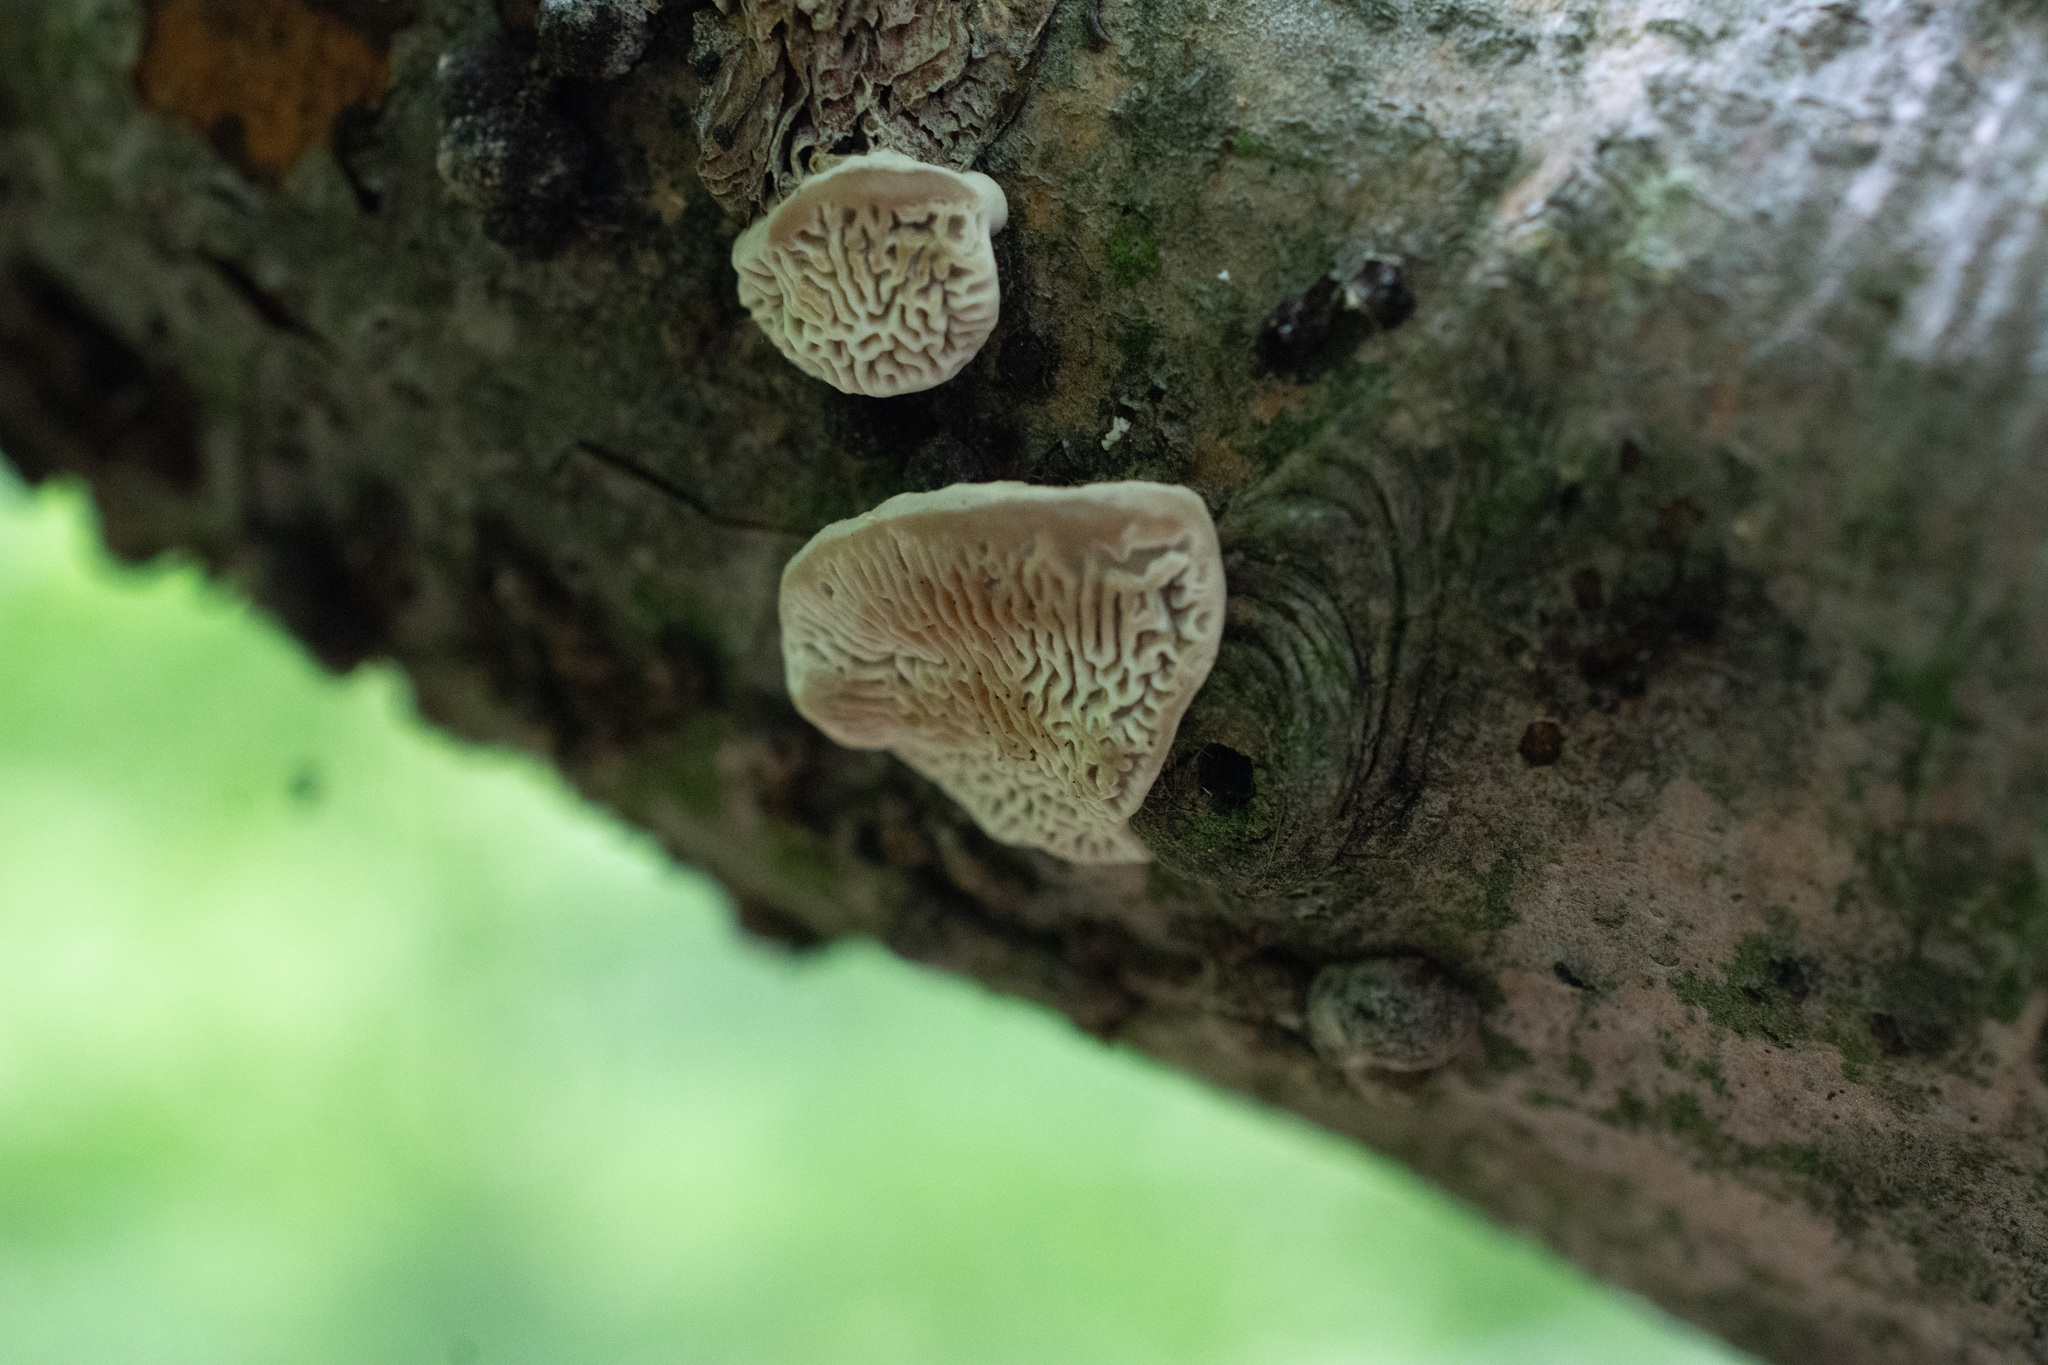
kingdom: Fungi
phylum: Basidiomycota
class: Agaricomycetes
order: Polyporales
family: Fomitopsidaceae
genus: Fomitopsis
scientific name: Fomitopsis
